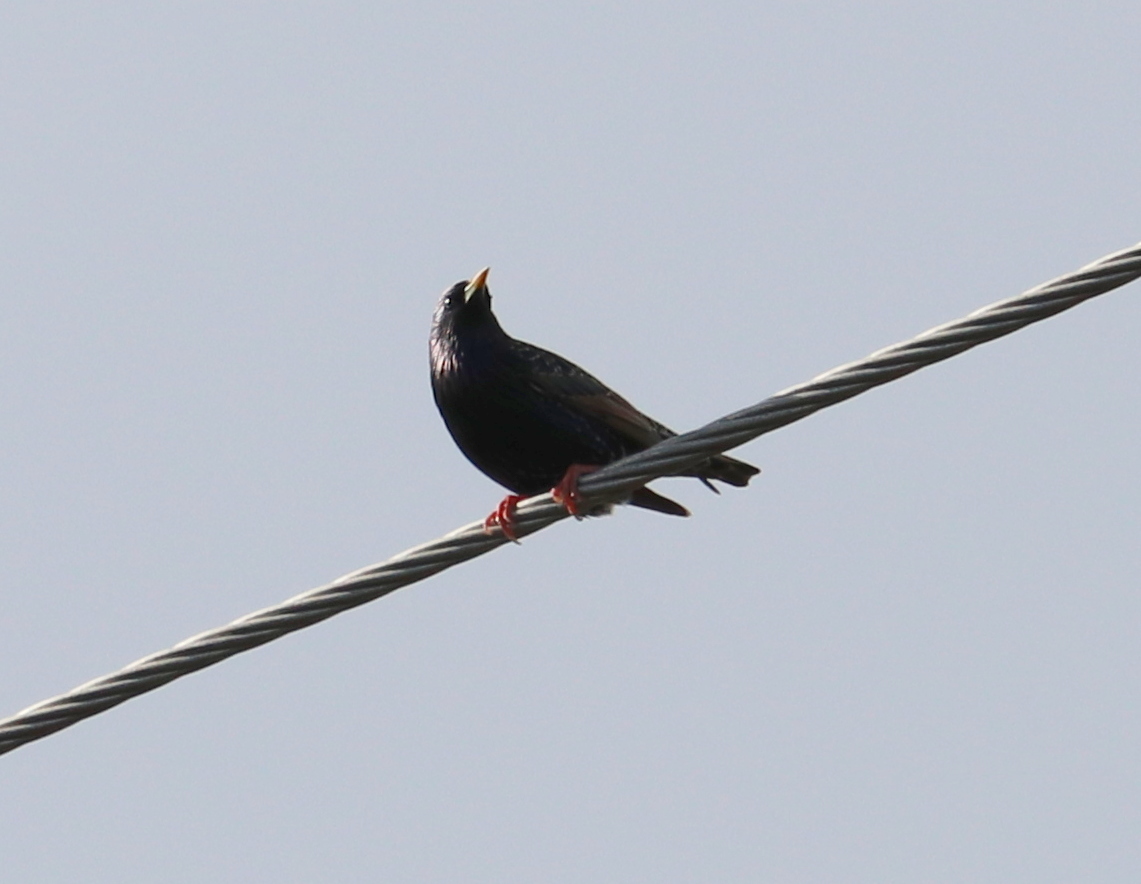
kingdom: Animalia
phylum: Chordata
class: Aves
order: Passeriformes
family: Sturnidae
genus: Sturnus
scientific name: Sturnus vulgaris
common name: Common starling
